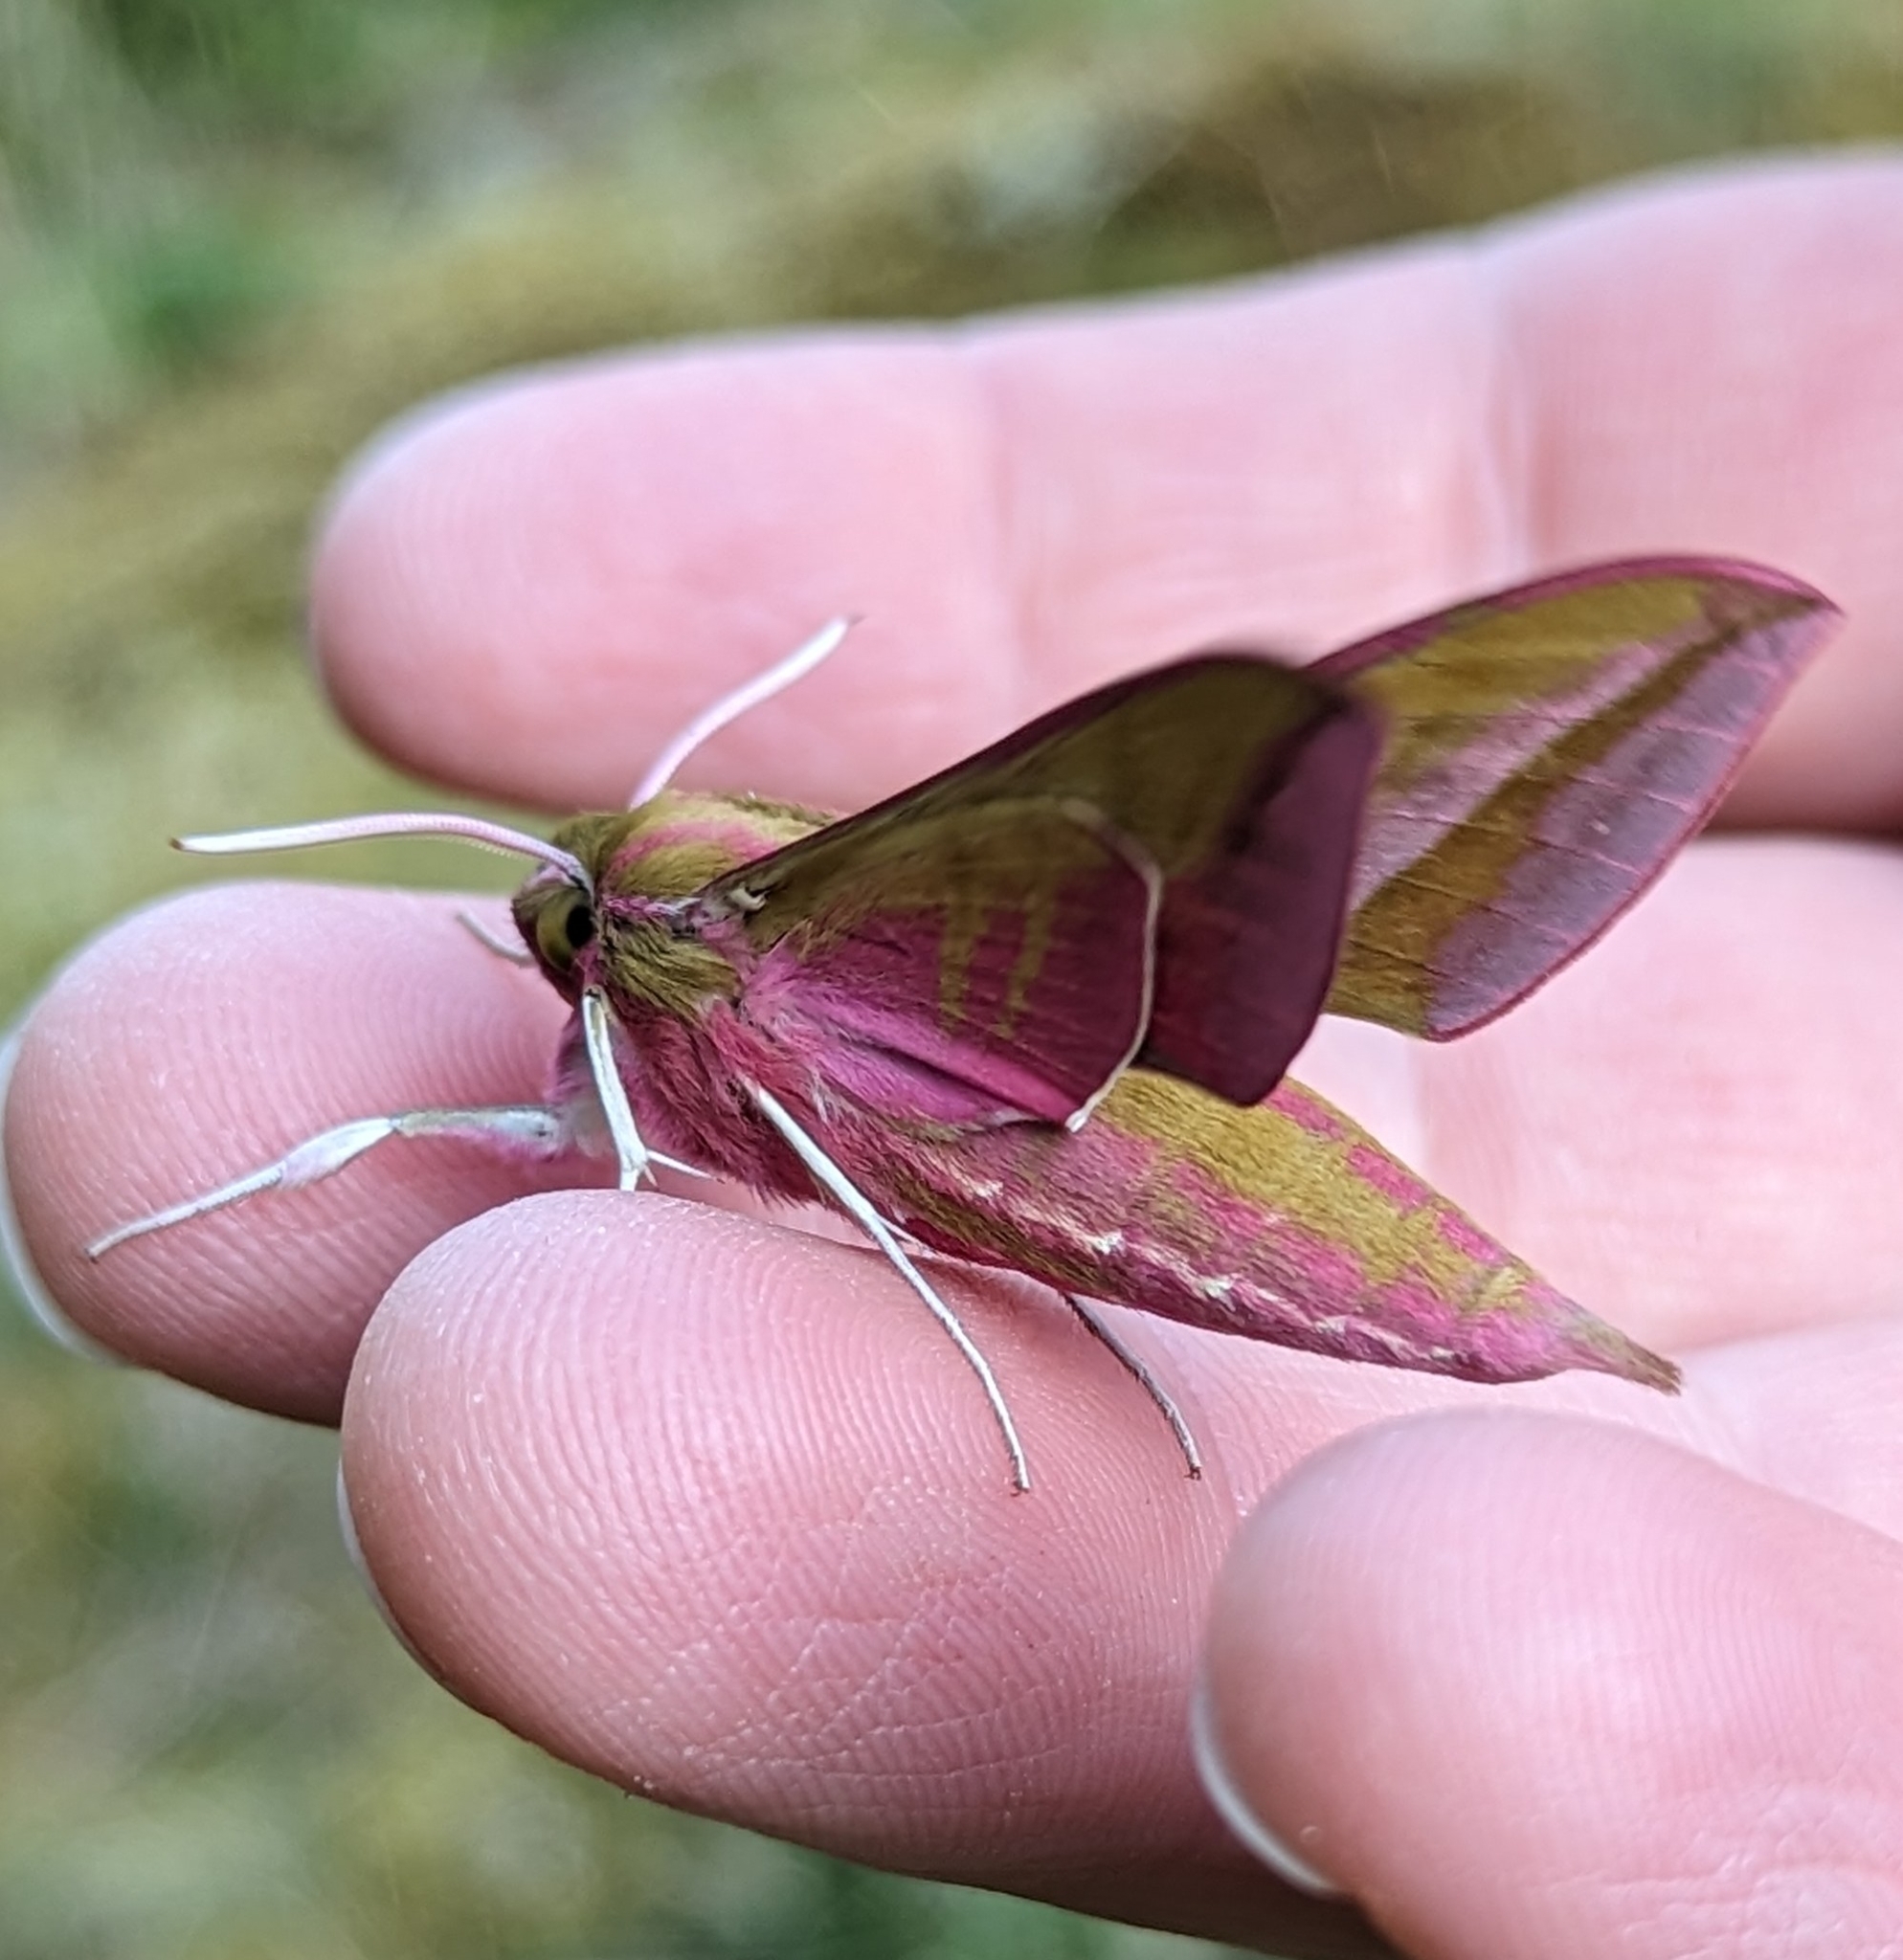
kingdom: Animalia
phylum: Arthropoda
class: Insecta
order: Lepidoptera
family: Sphingidae
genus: Deilephila
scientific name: Deilephila elpenor
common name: Elephant hawk-moth
